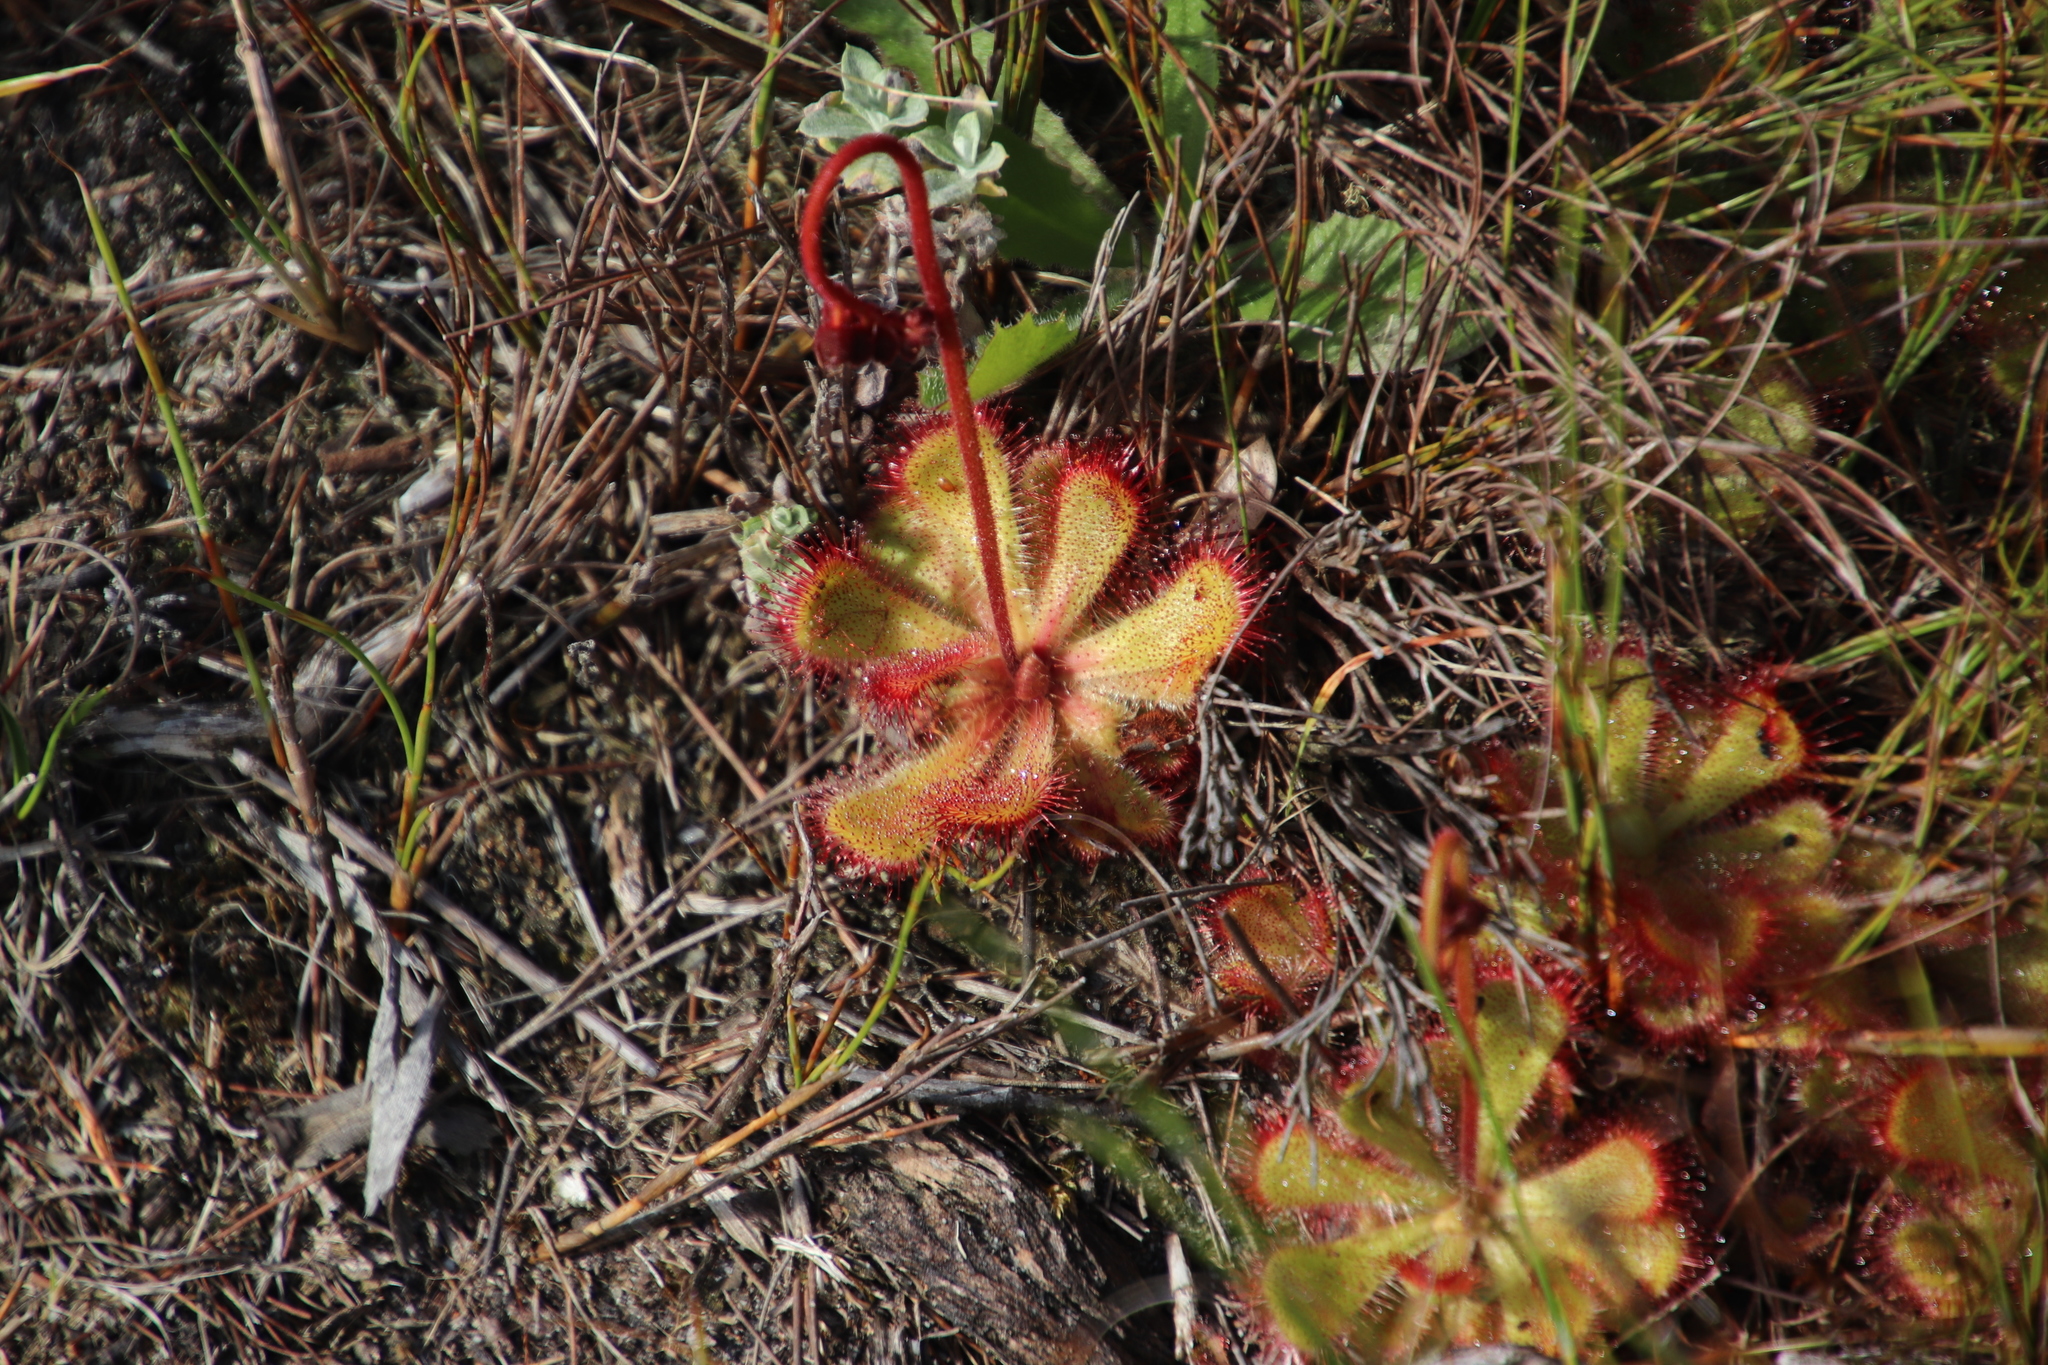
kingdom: Plantae
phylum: Tracheophyta
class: Magnoliopsida
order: Caryophyllales
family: Droseraceae
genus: Drosera
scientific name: Drosera cuneifolia
